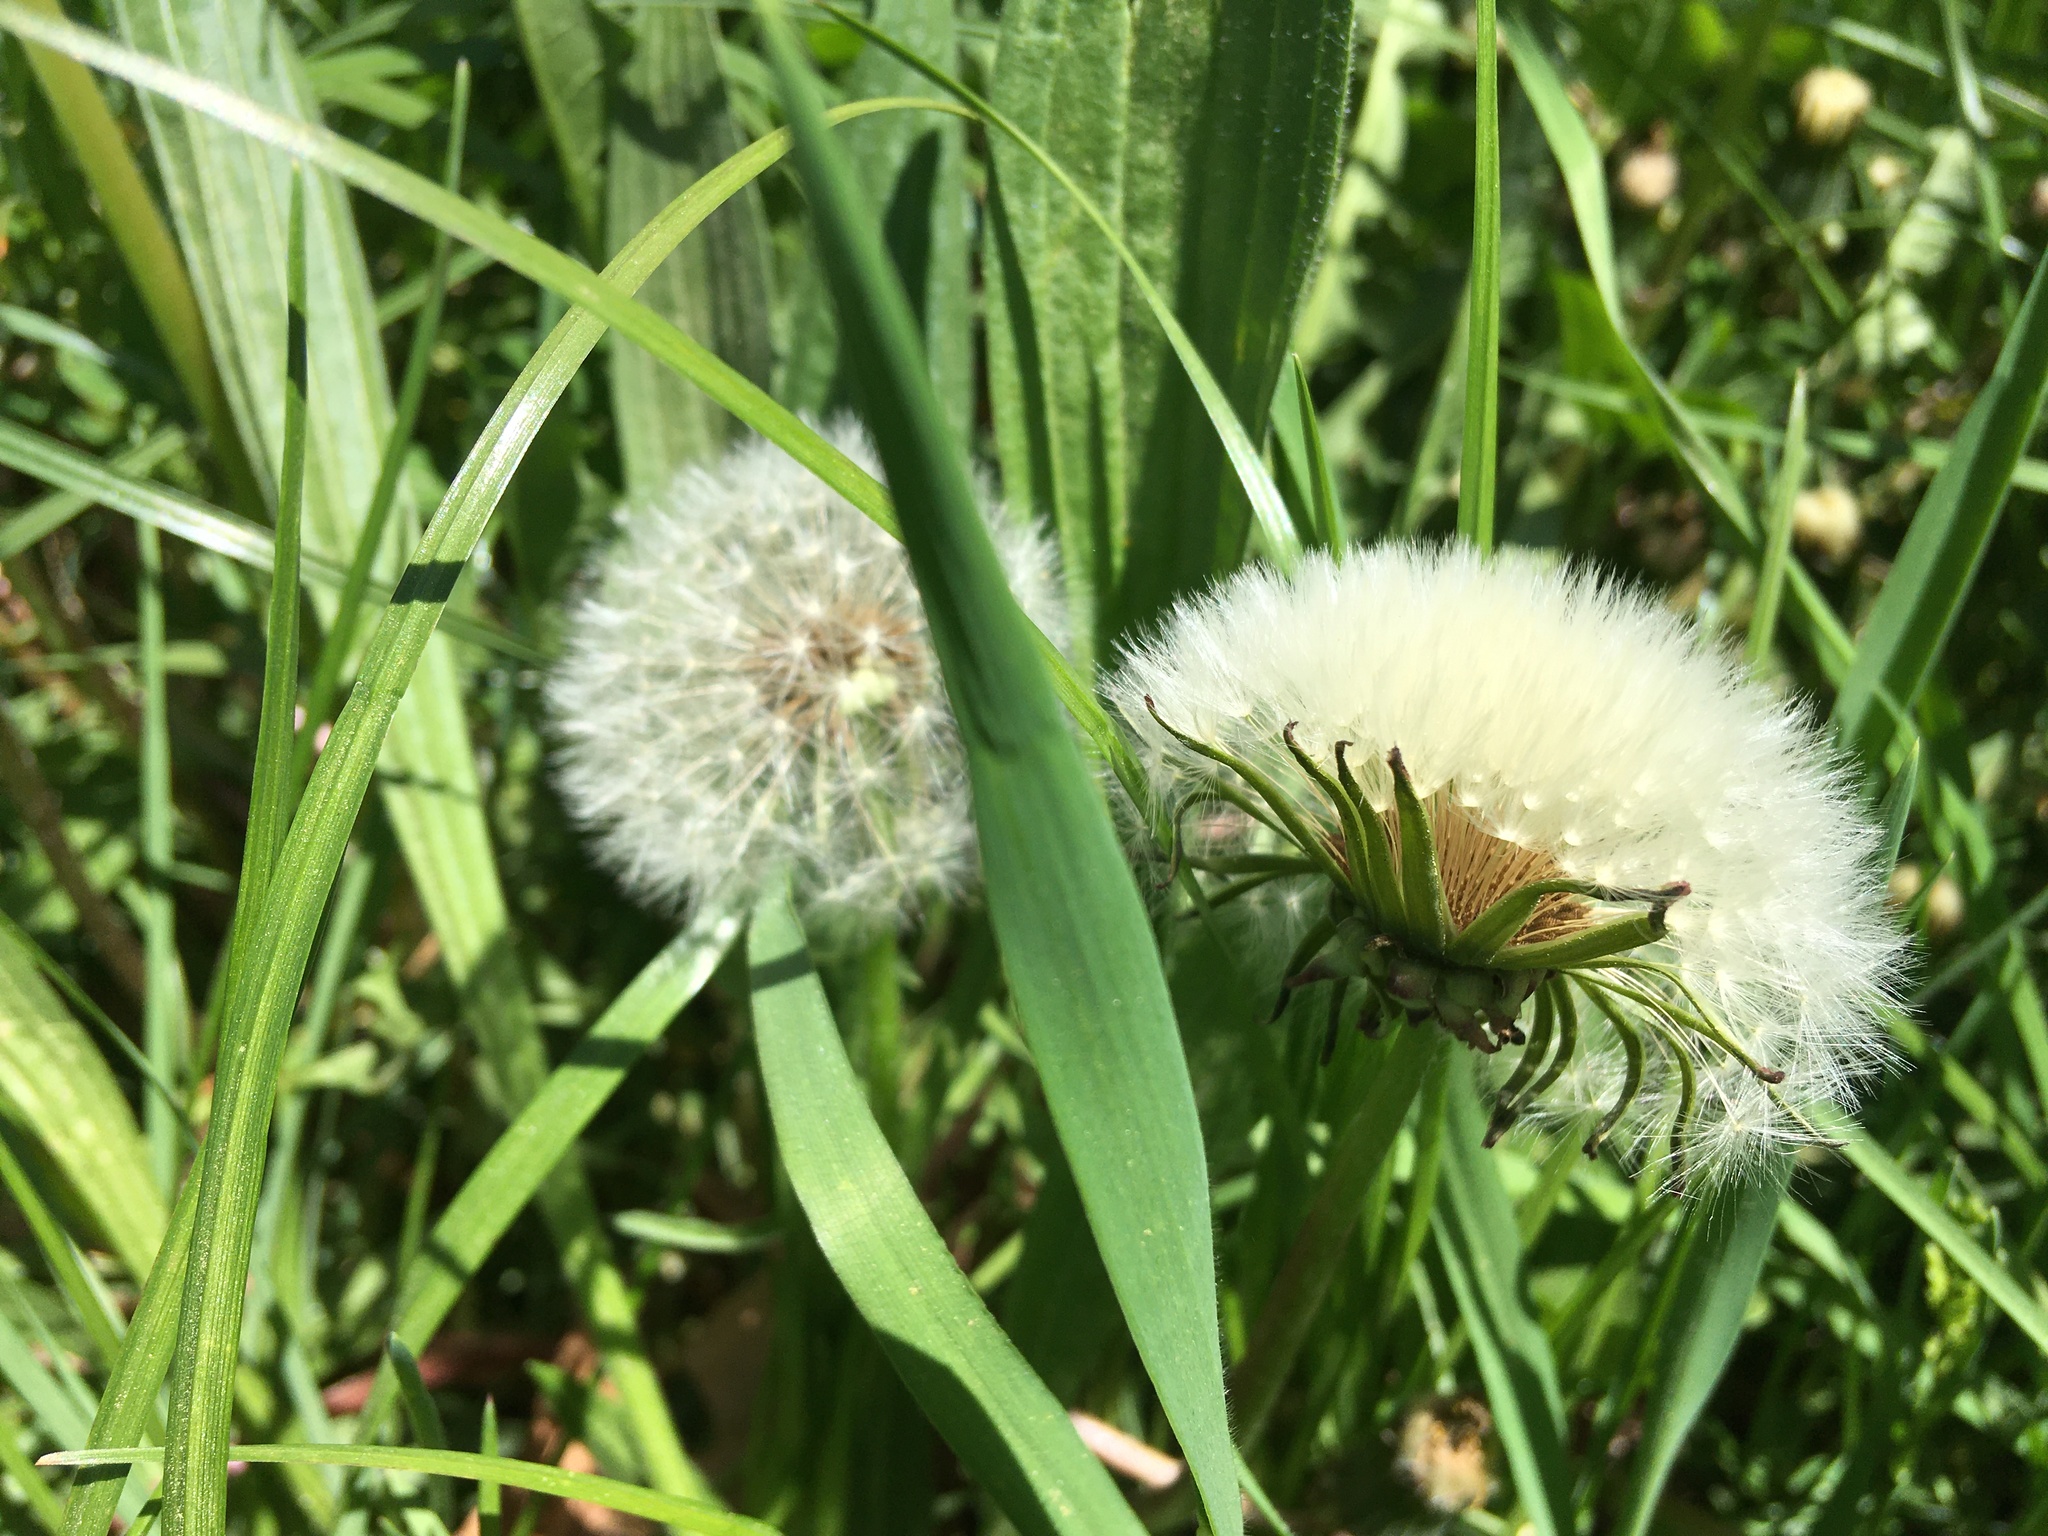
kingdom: Plantae
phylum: Tracheophyta
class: Magnoliopsida
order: Asterales
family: Asteraceae
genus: Taraxacum
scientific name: Taraxacum officinale
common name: Common dandelion
